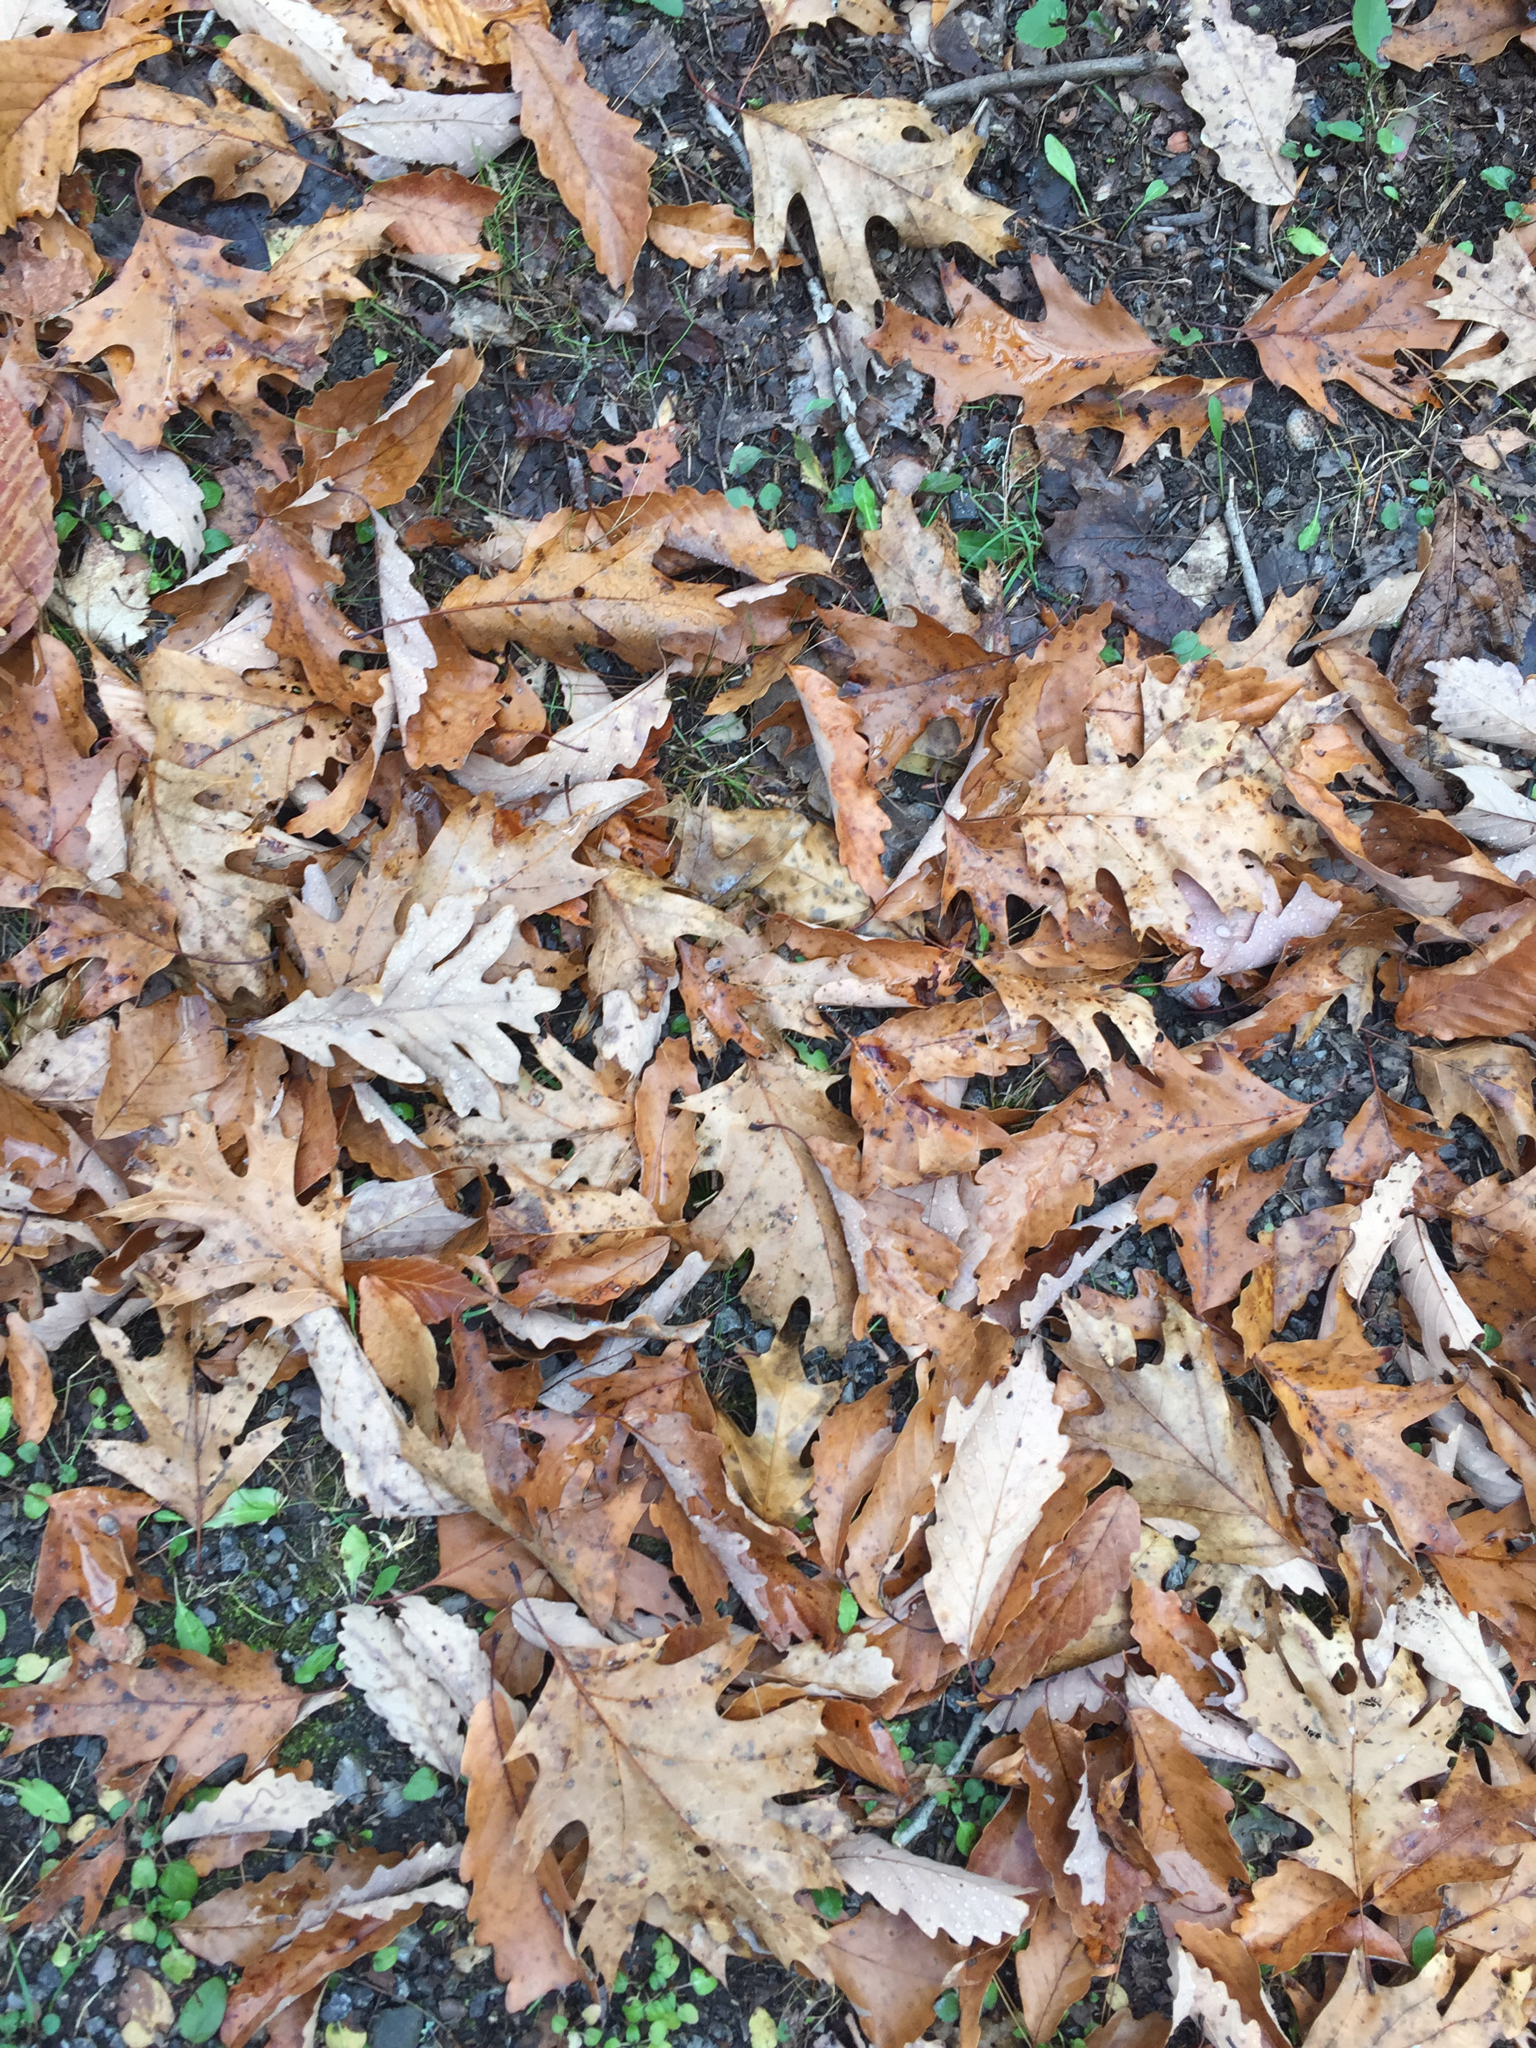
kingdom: Plantae
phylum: Tracheophyta
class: Magnoliopsida
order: Fagales
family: Fagaceae
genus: Quercus
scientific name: Quercus rubra
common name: Red oak
